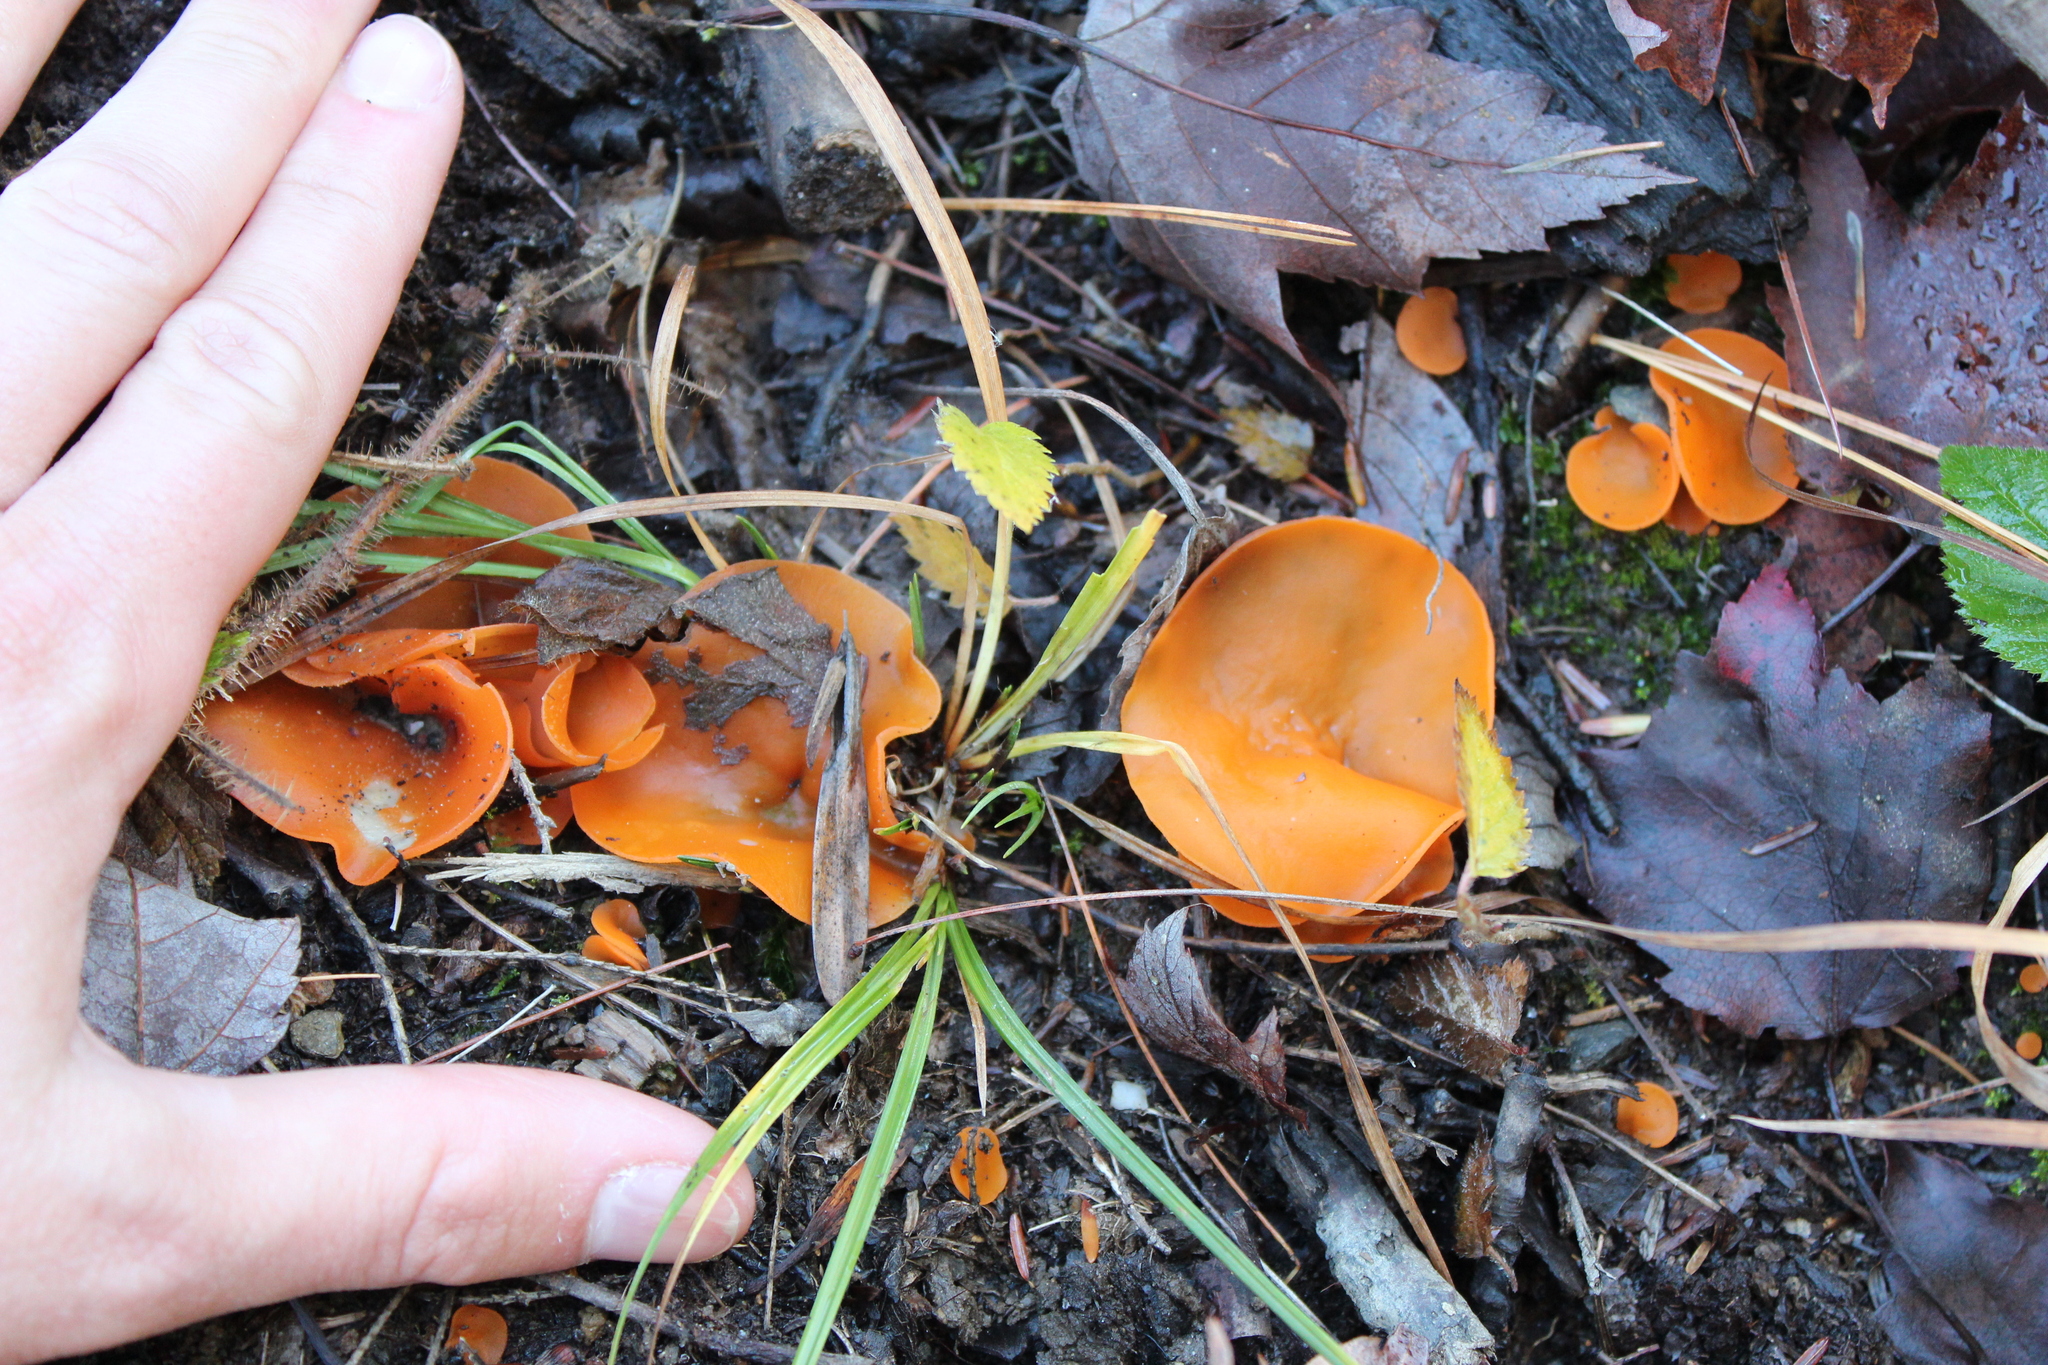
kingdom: Fungi
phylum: Ascomycota
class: Pezizomycetes
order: Pezizales
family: Pyronemataceae
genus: Aleuria
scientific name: Aleuria aurantia
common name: Orange peel fungus
